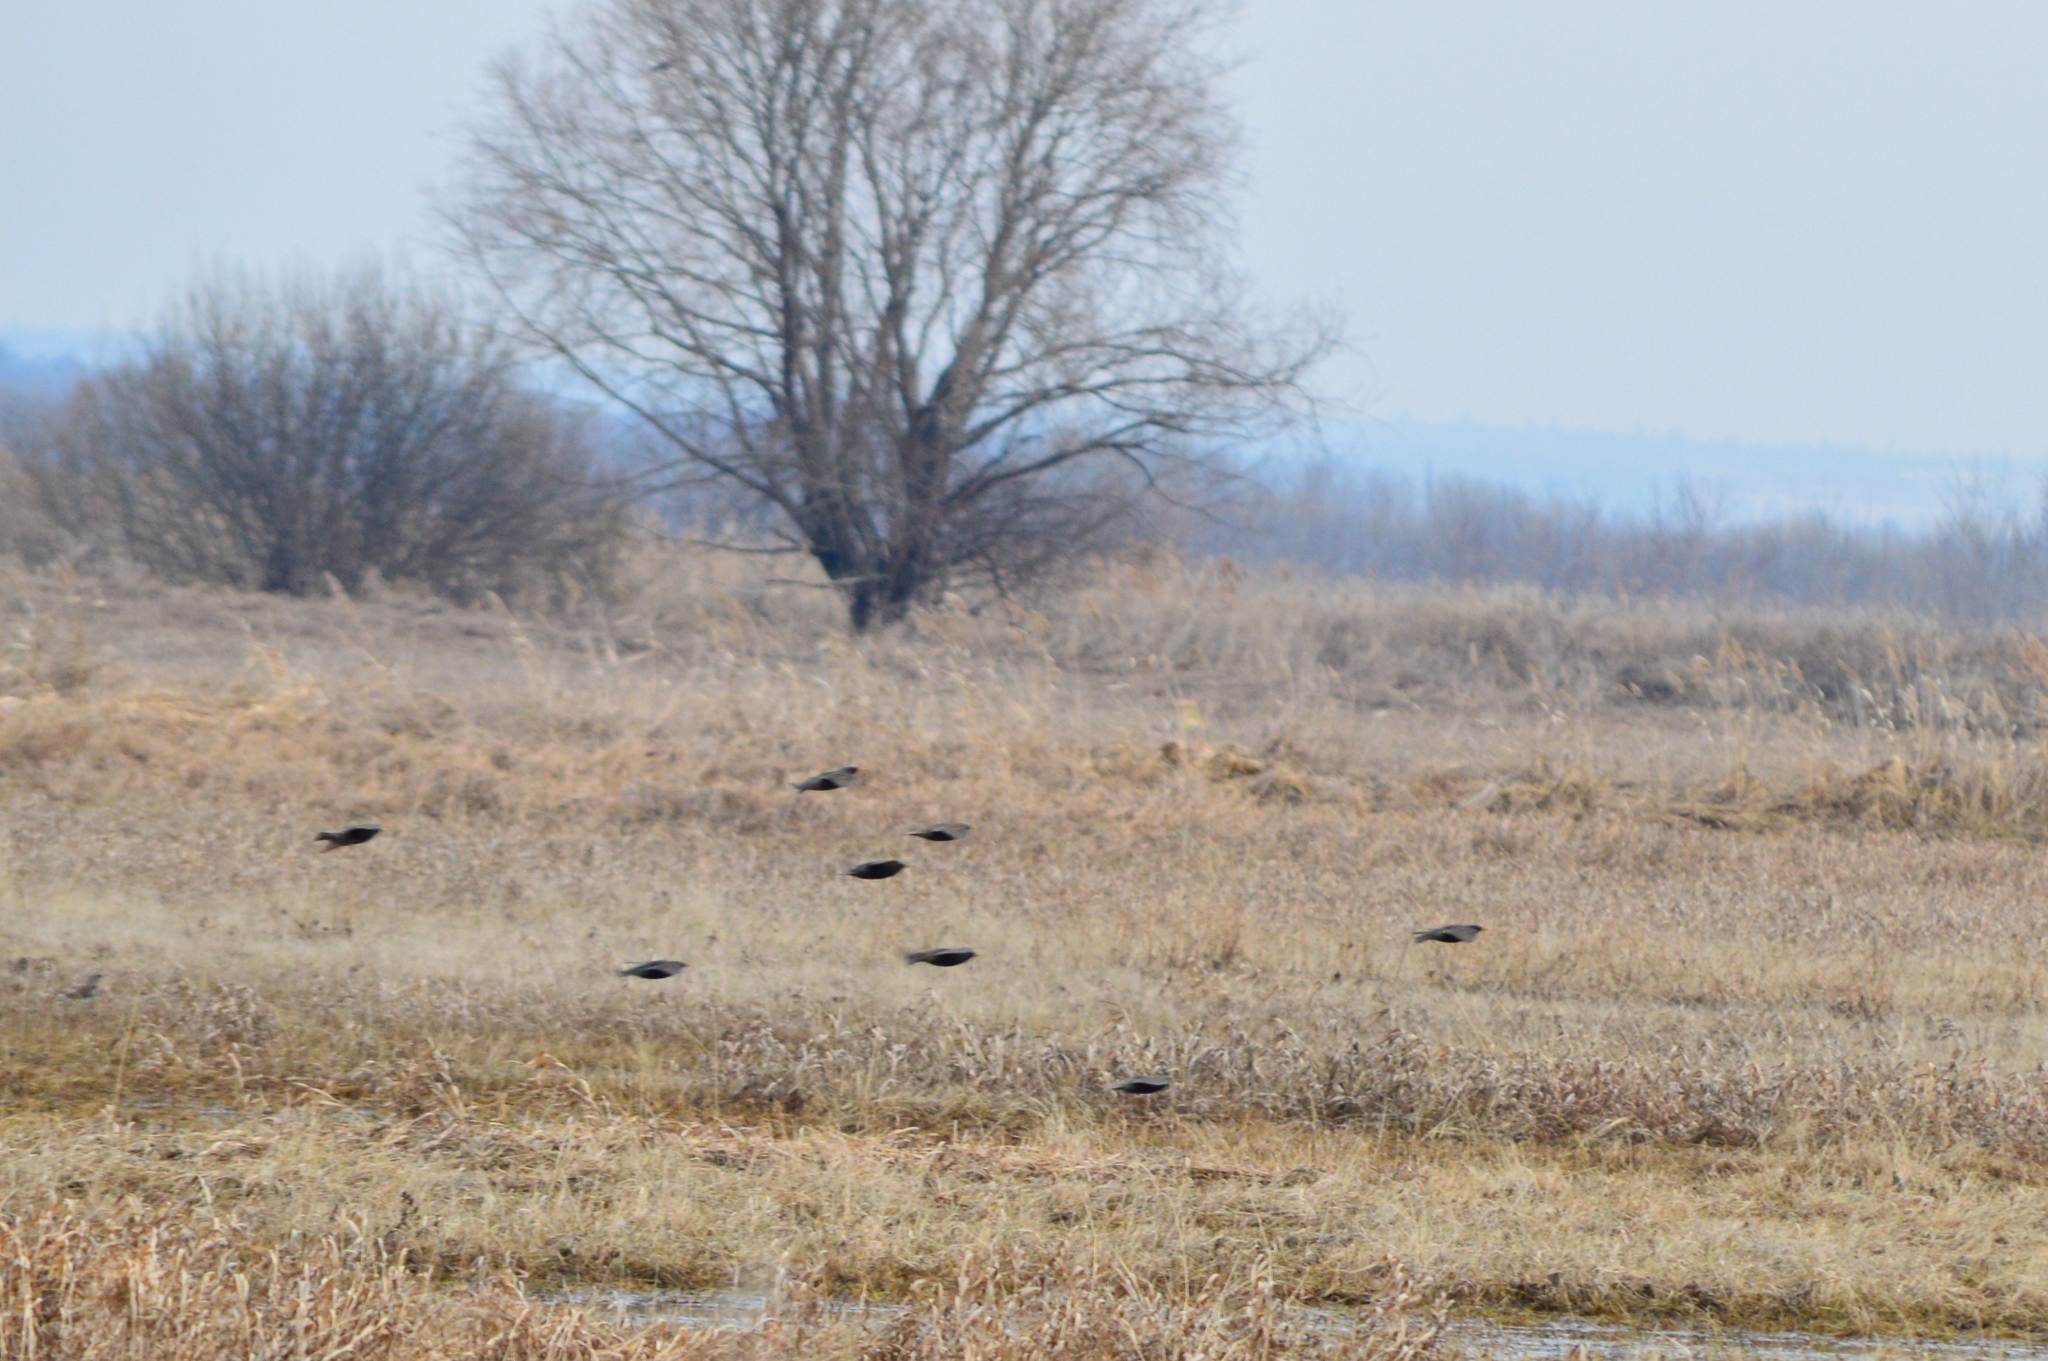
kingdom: Animalia
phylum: Chordata
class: Aves
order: Passeriformes
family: Turdidae
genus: Turdus
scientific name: Turdus merula
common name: Common blackbird
